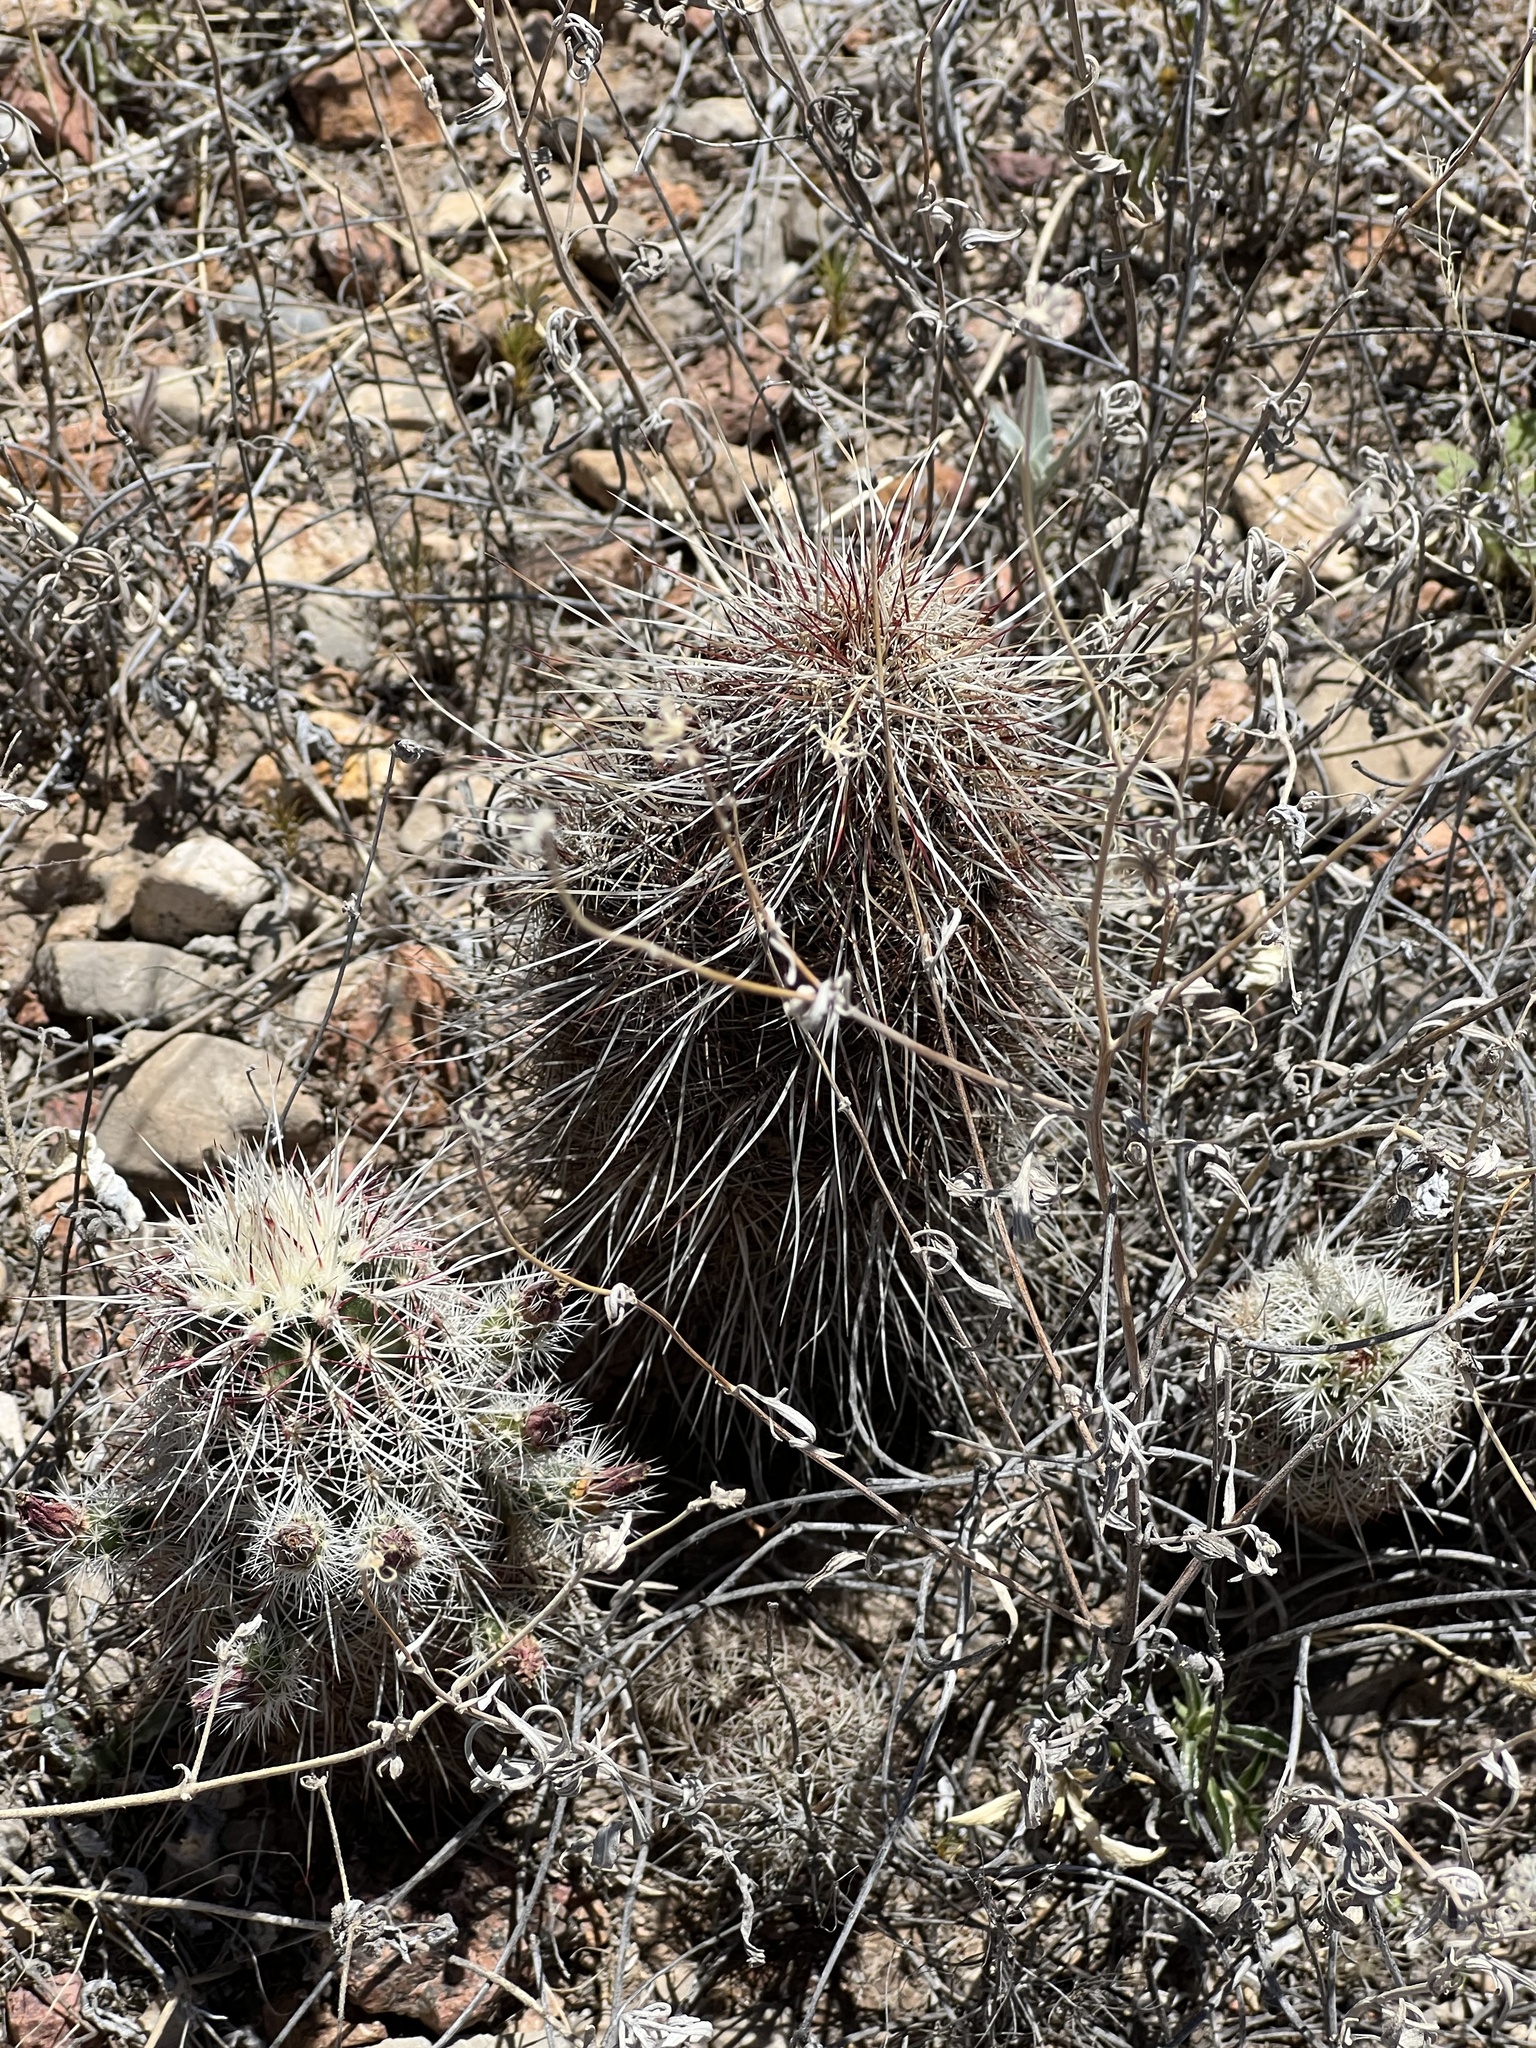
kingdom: Plantae
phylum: Tracheophyta
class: Magnoliopsida
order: Caryophyllales
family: Cactaceae
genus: Echinocereus
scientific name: Echinocereus viridiflorus
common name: Nylon hedgehog cactus
